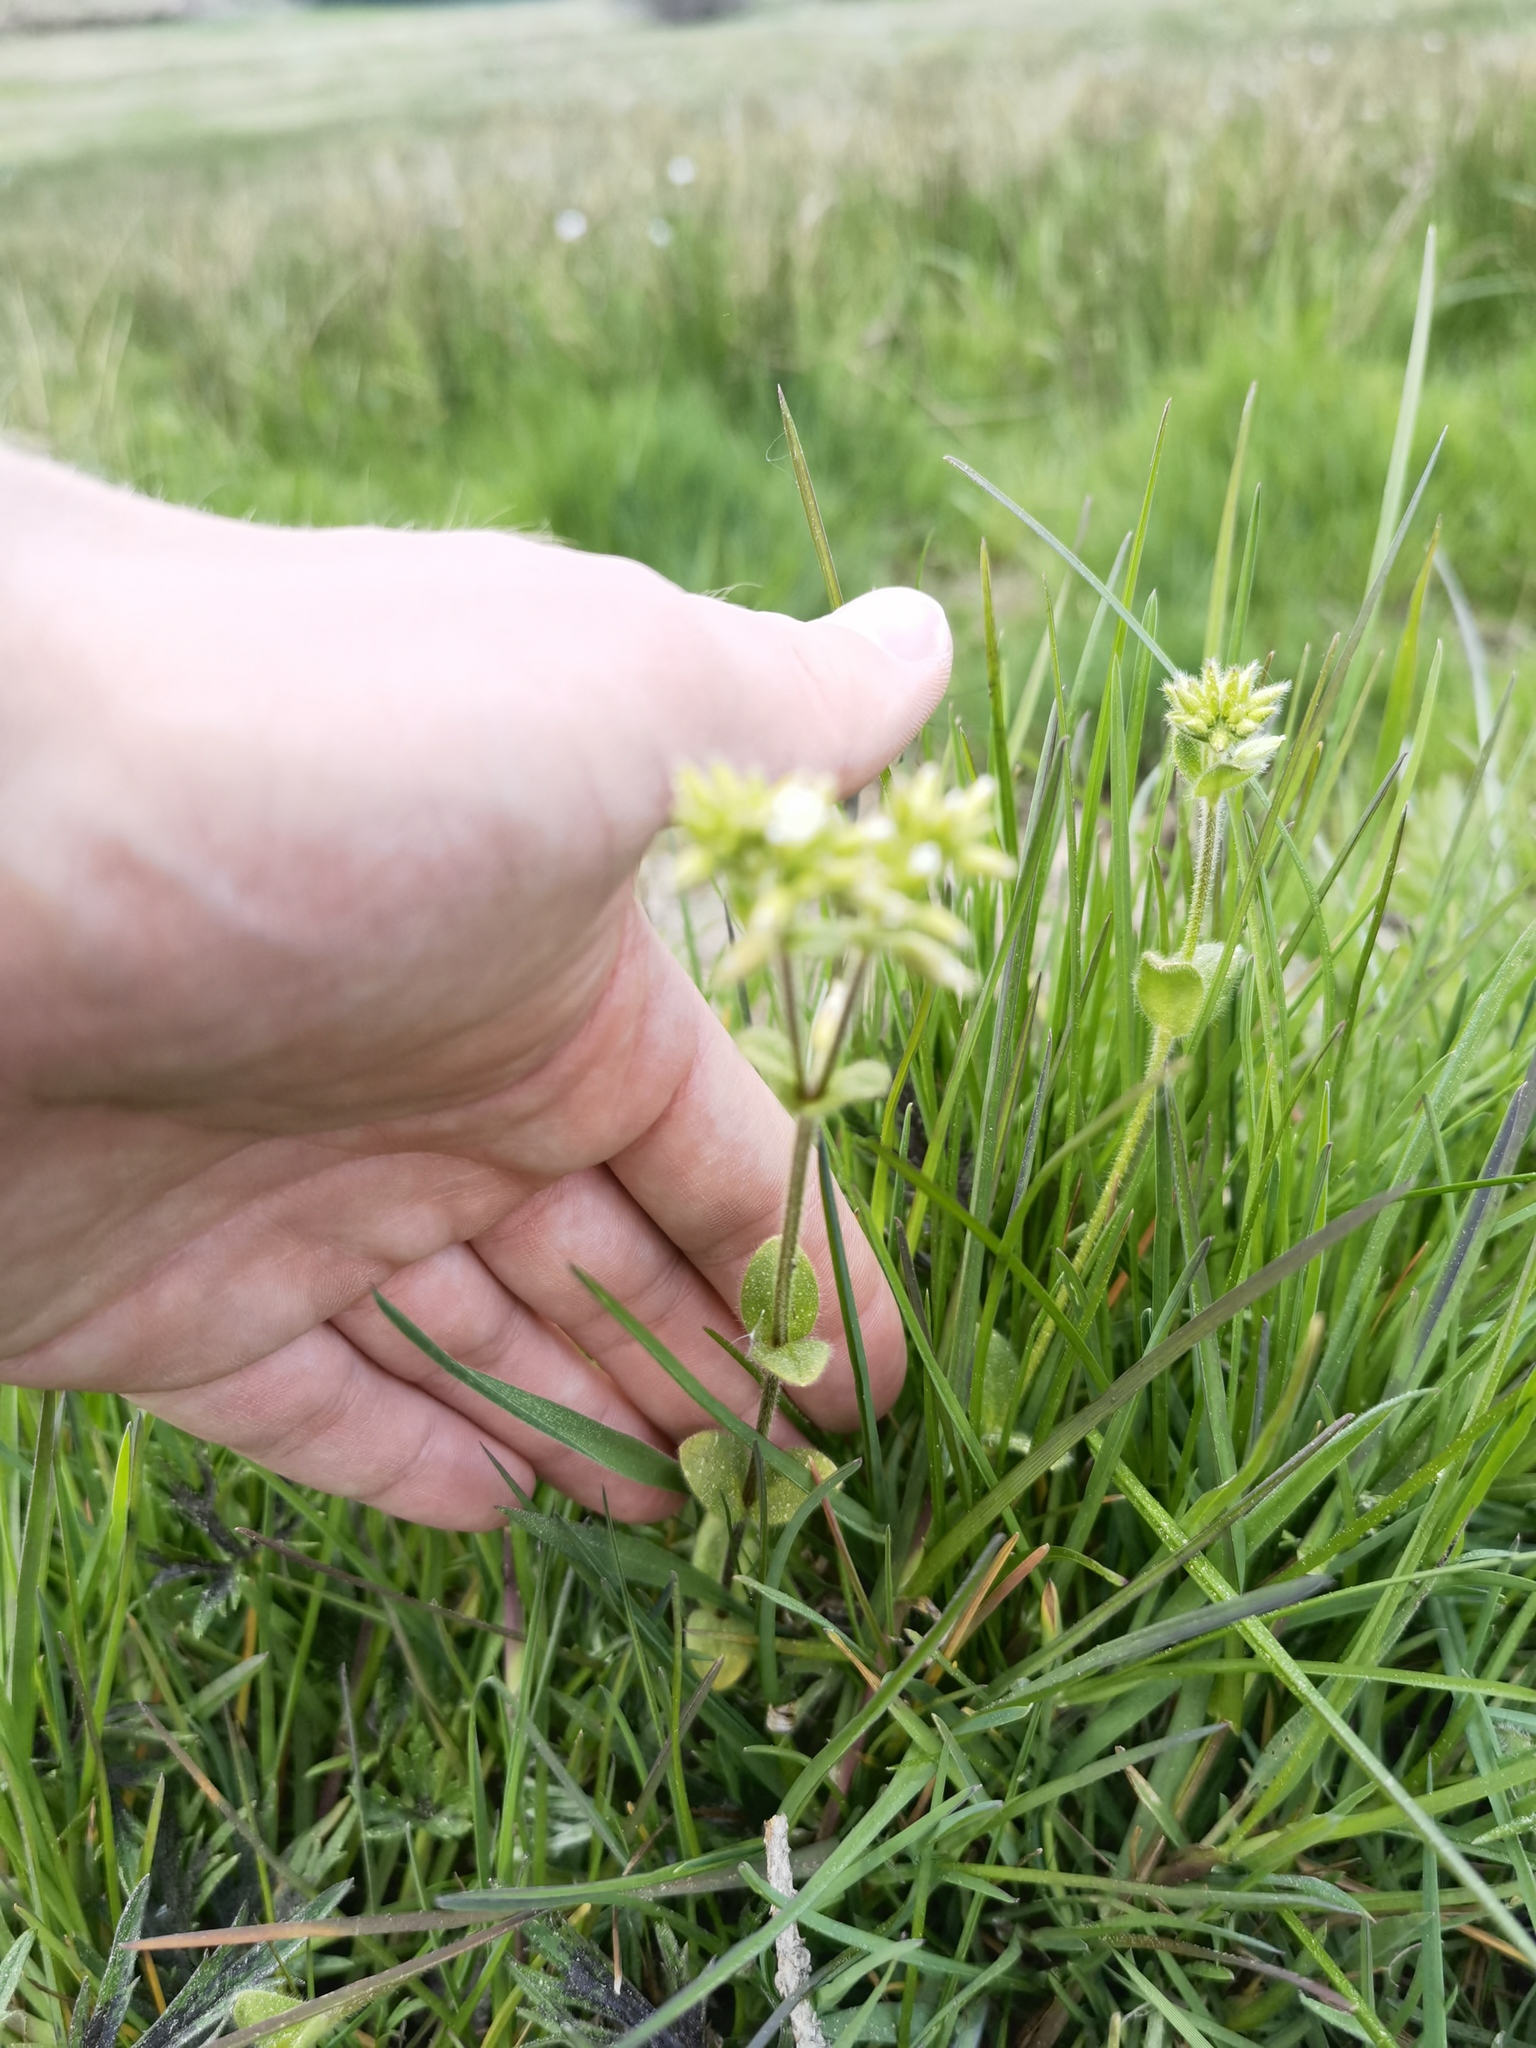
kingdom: Plantae
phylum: Tracheophyta
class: Magnoliopsida
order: Caryophyllales
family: Caryophyllaceae
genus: Cerastium
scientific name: Cerastium glomeratum
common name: Sticky chickweed
